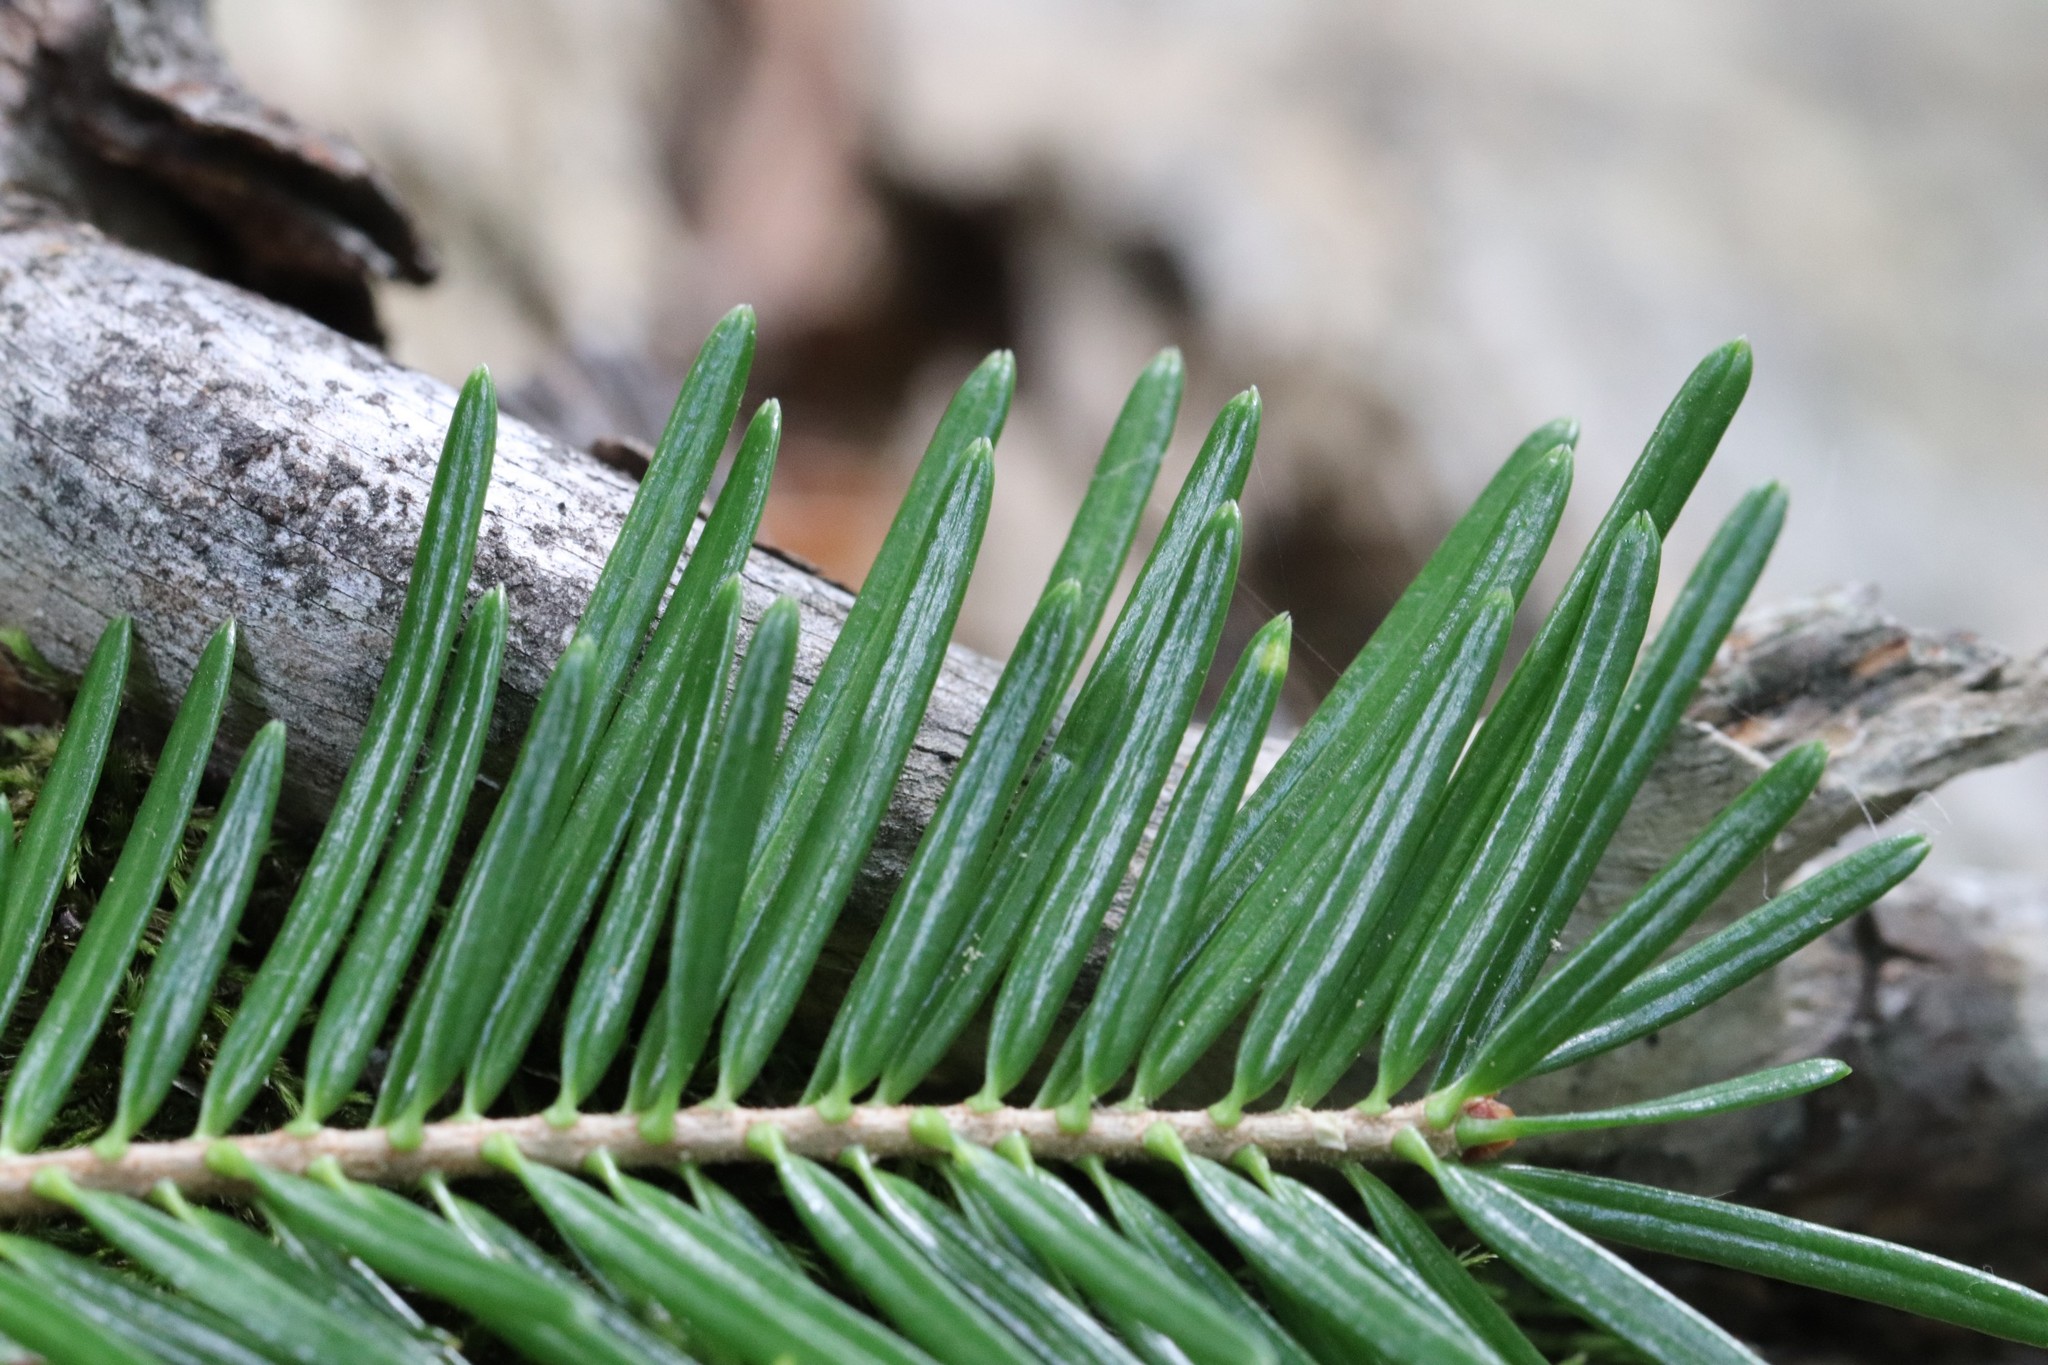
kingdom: Plantae
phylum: Tracheophyta
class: Pinopsida
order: Pinales
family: Pinaceae
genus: Abies
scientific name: Abies nephrolepis
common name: Hinggan fir
